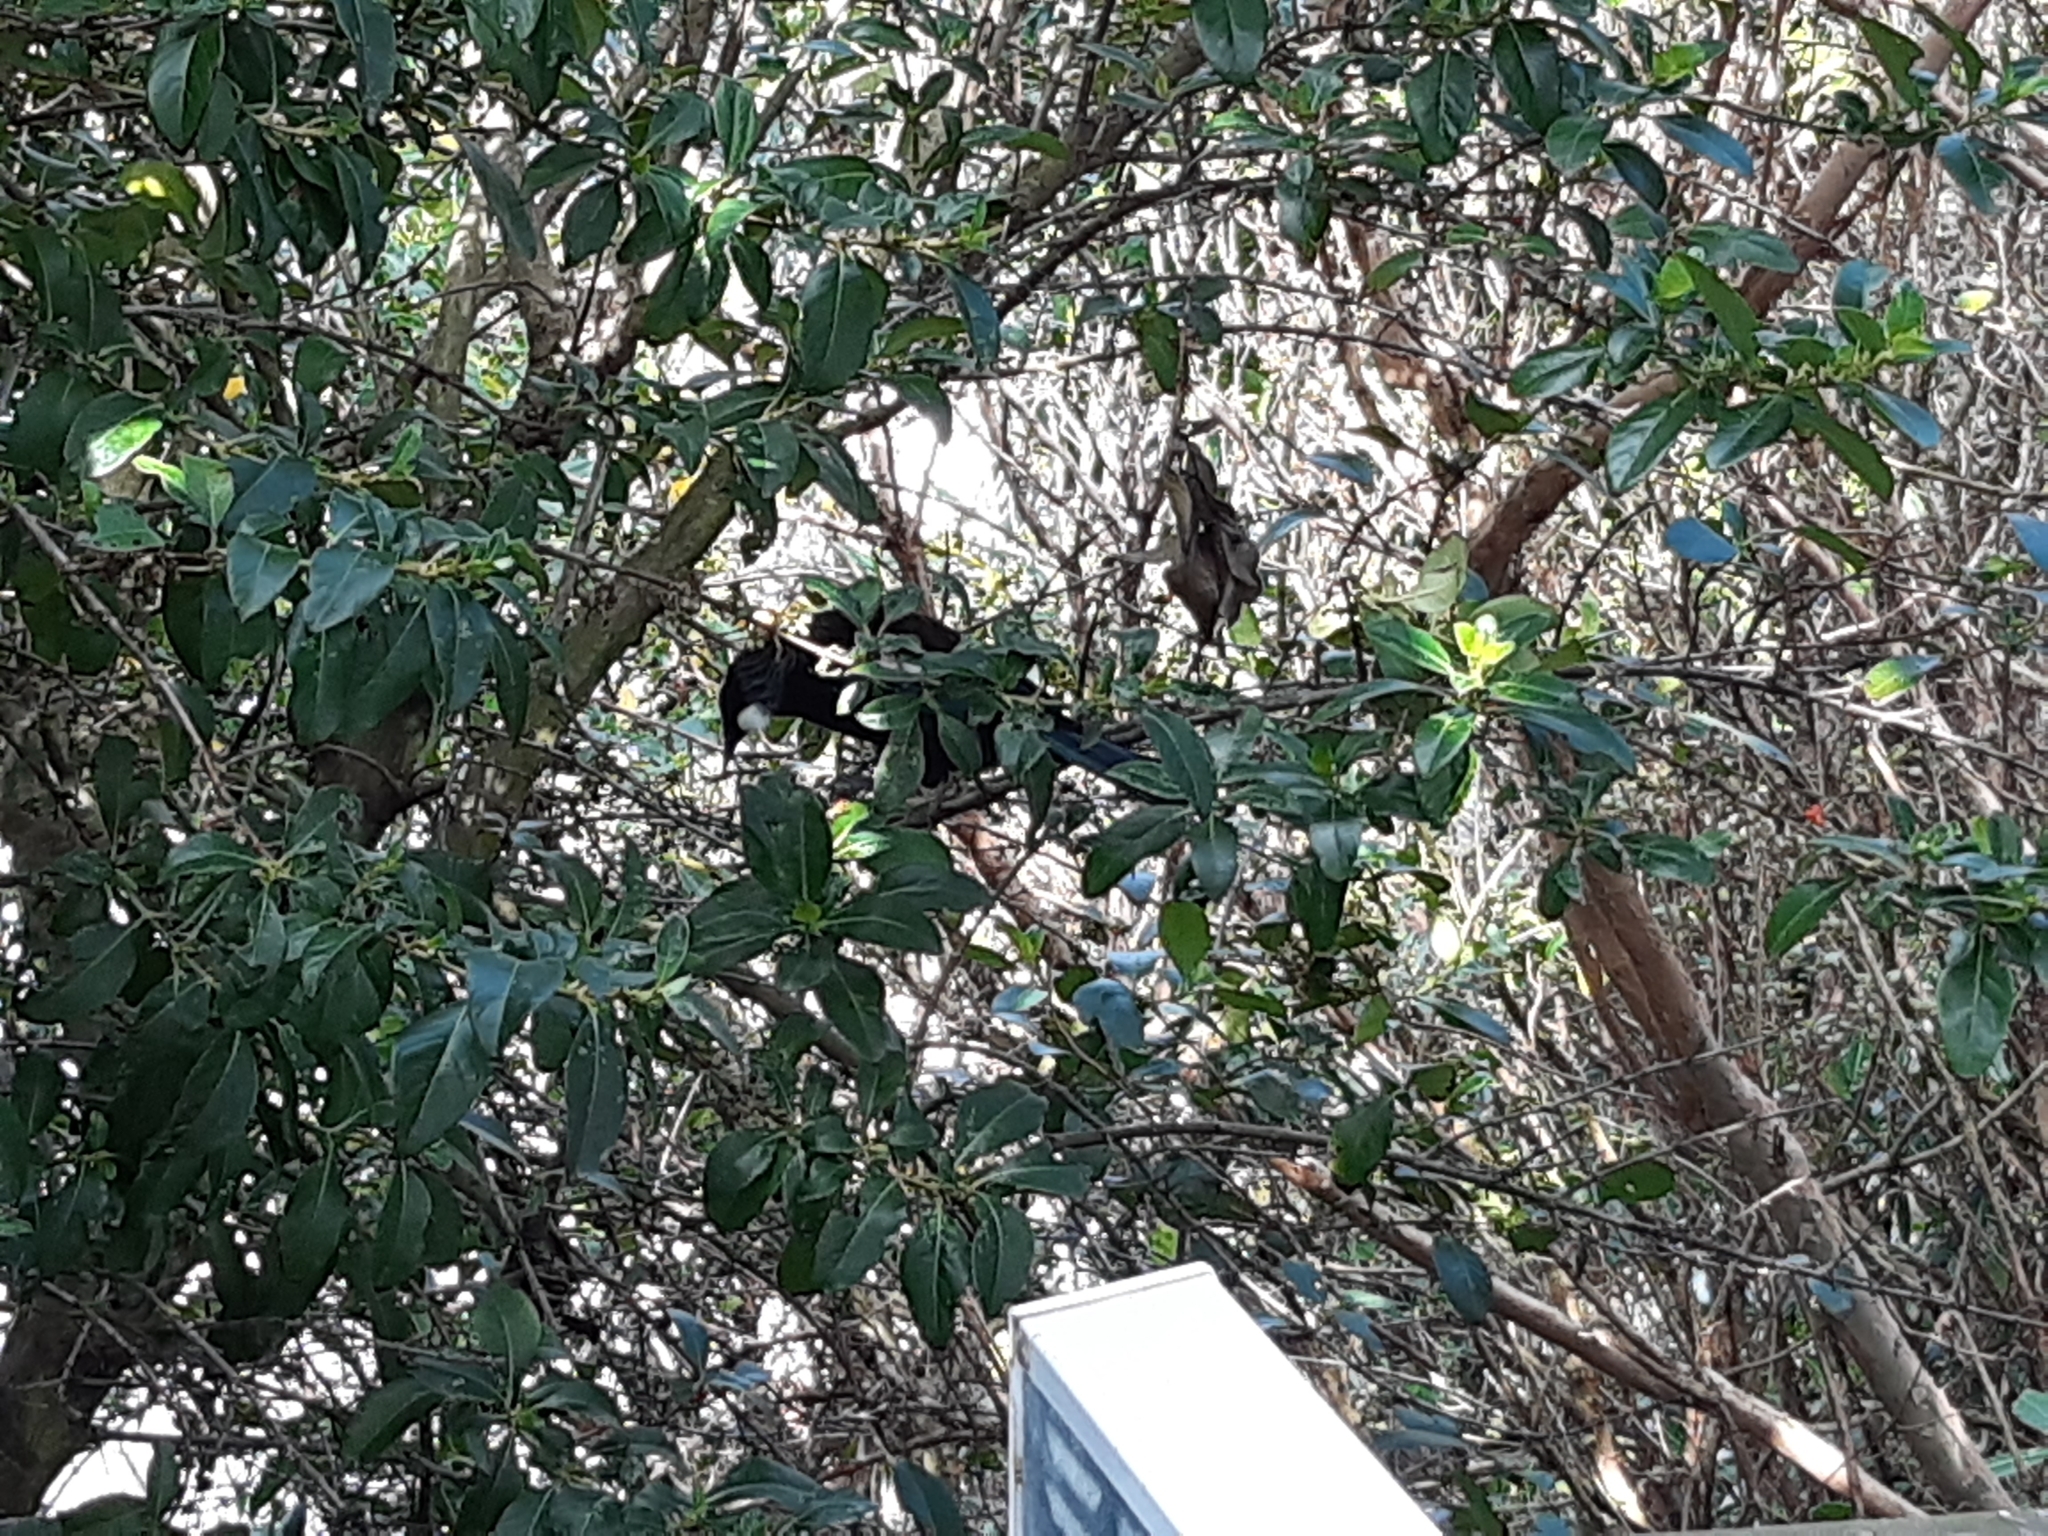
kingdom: Animalia
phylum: Chordata
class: Aves
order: Passeriformes
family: Meliphagidae
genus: Prosthemadera
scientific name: Prosthemadera novaeseelandiae
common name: Tui
